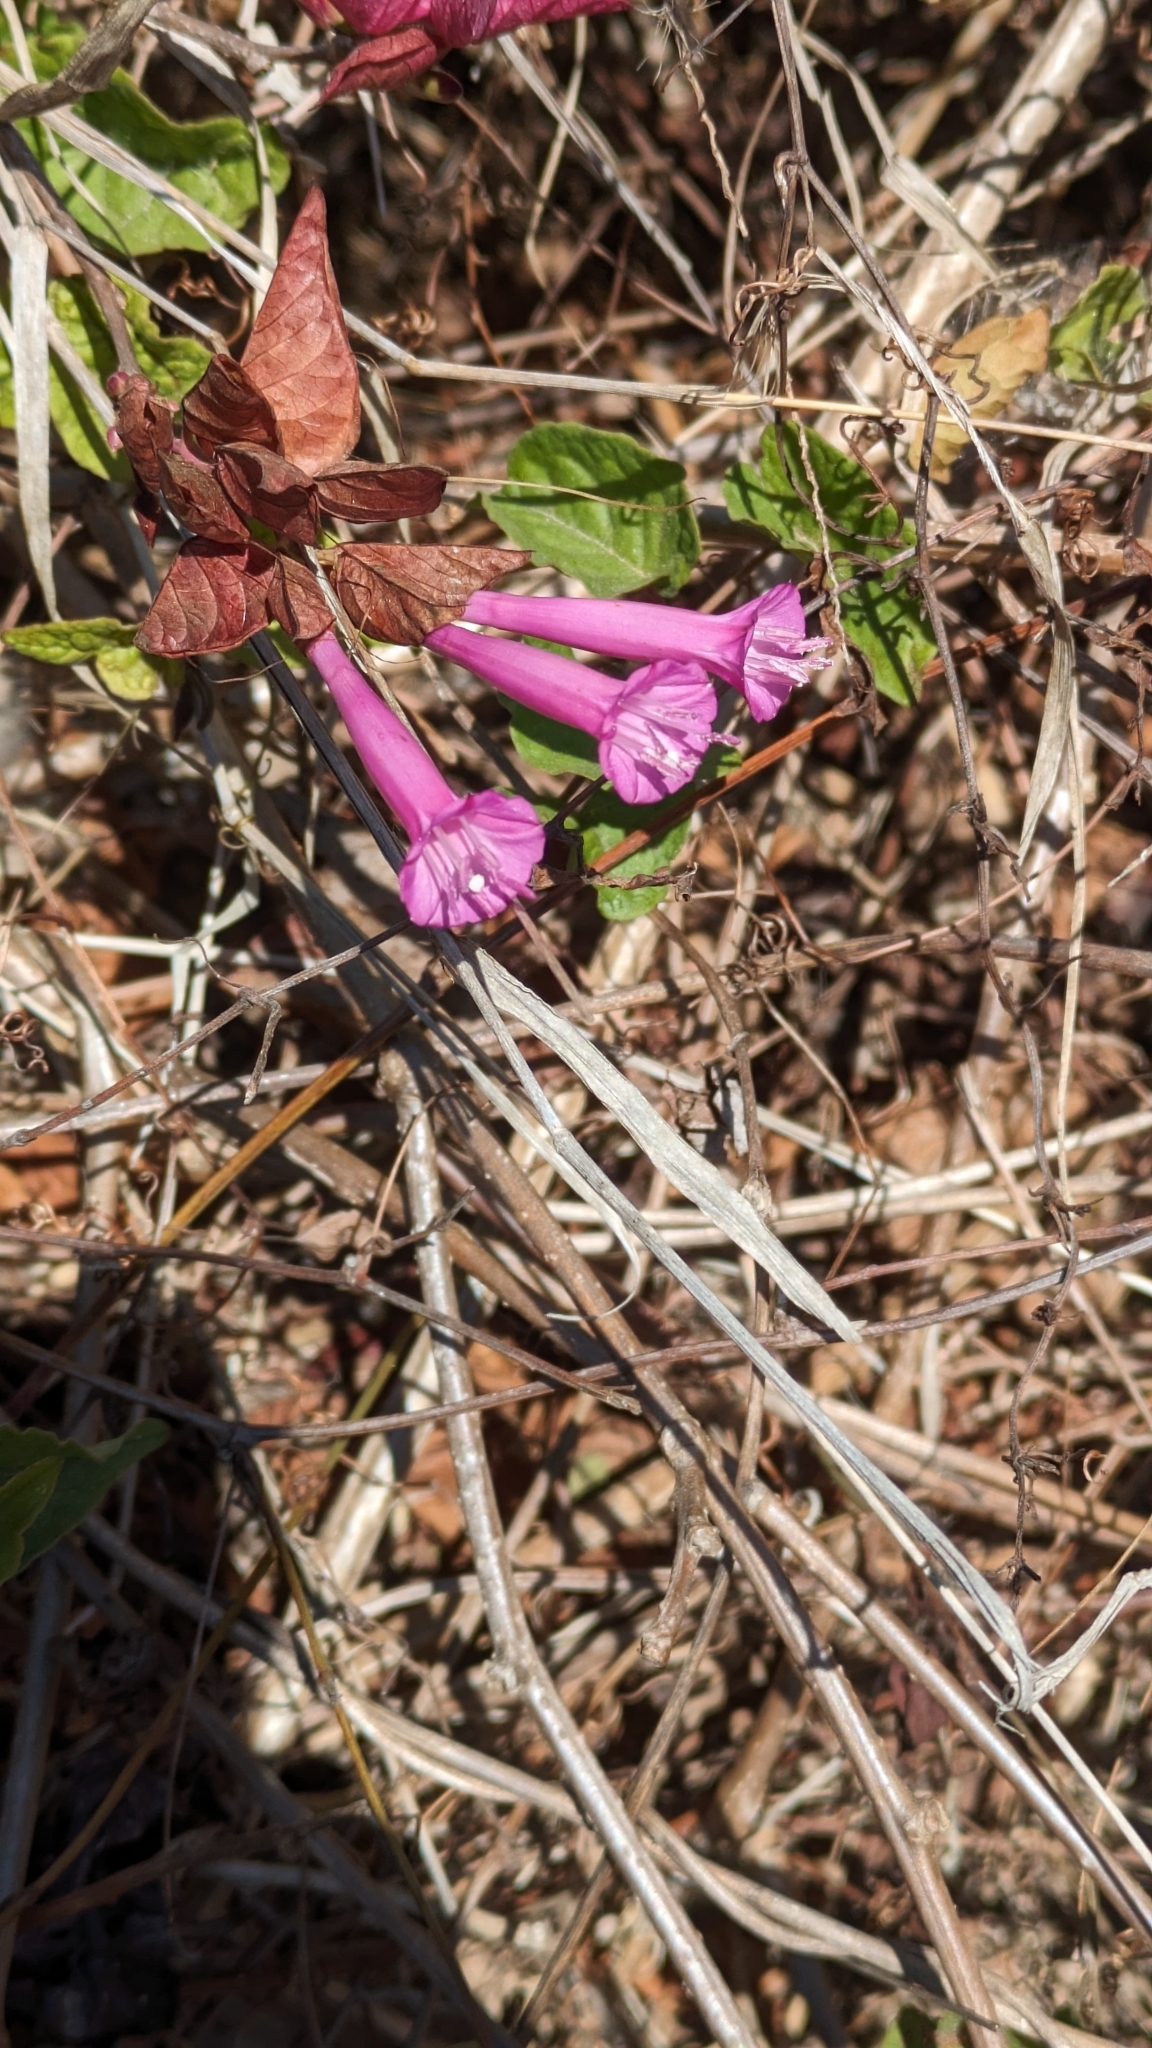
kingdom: Plantae
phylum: Tracheophyta
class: Magnoliopsida
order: Solanales
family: Convolvulaceae
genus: Ipomoea
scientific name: Ipomoea bracteata
